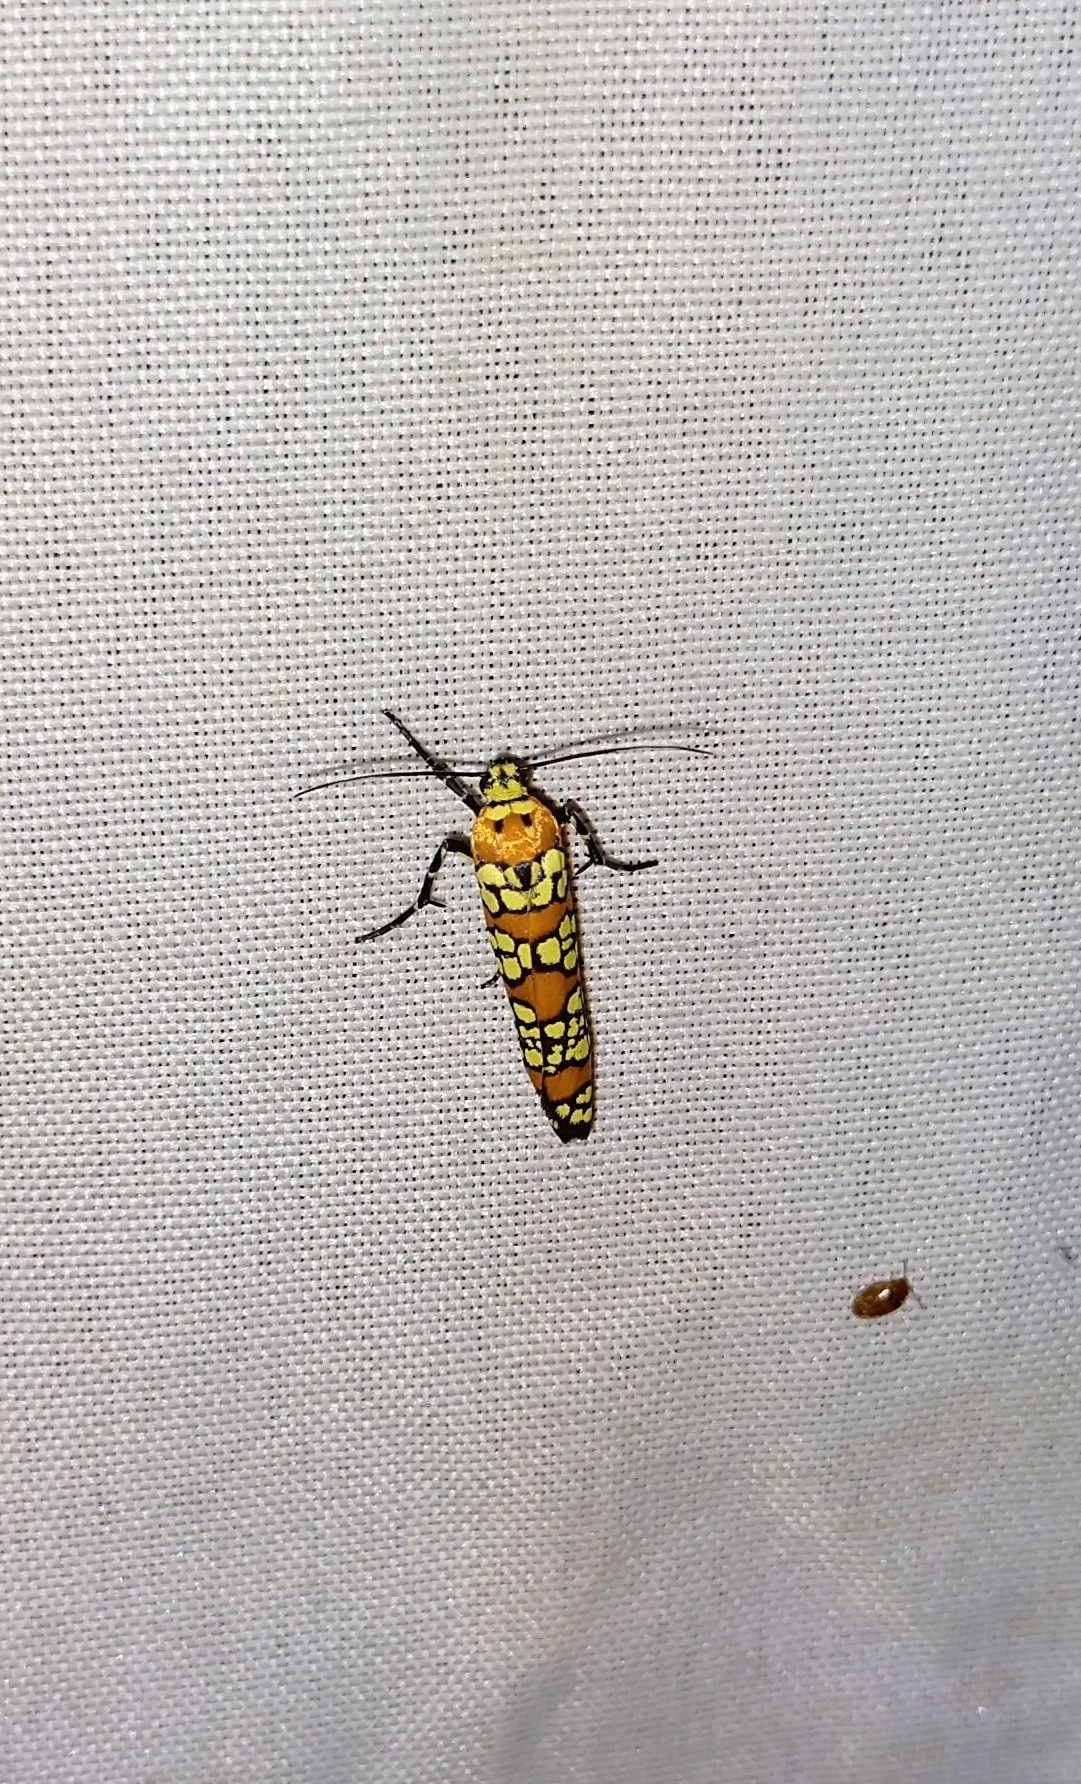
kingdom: Animalia
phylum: Arthropoda
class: Insecta
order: Lepidoptera
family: Attevidae
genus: Atteva
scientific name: Atteva punctella
